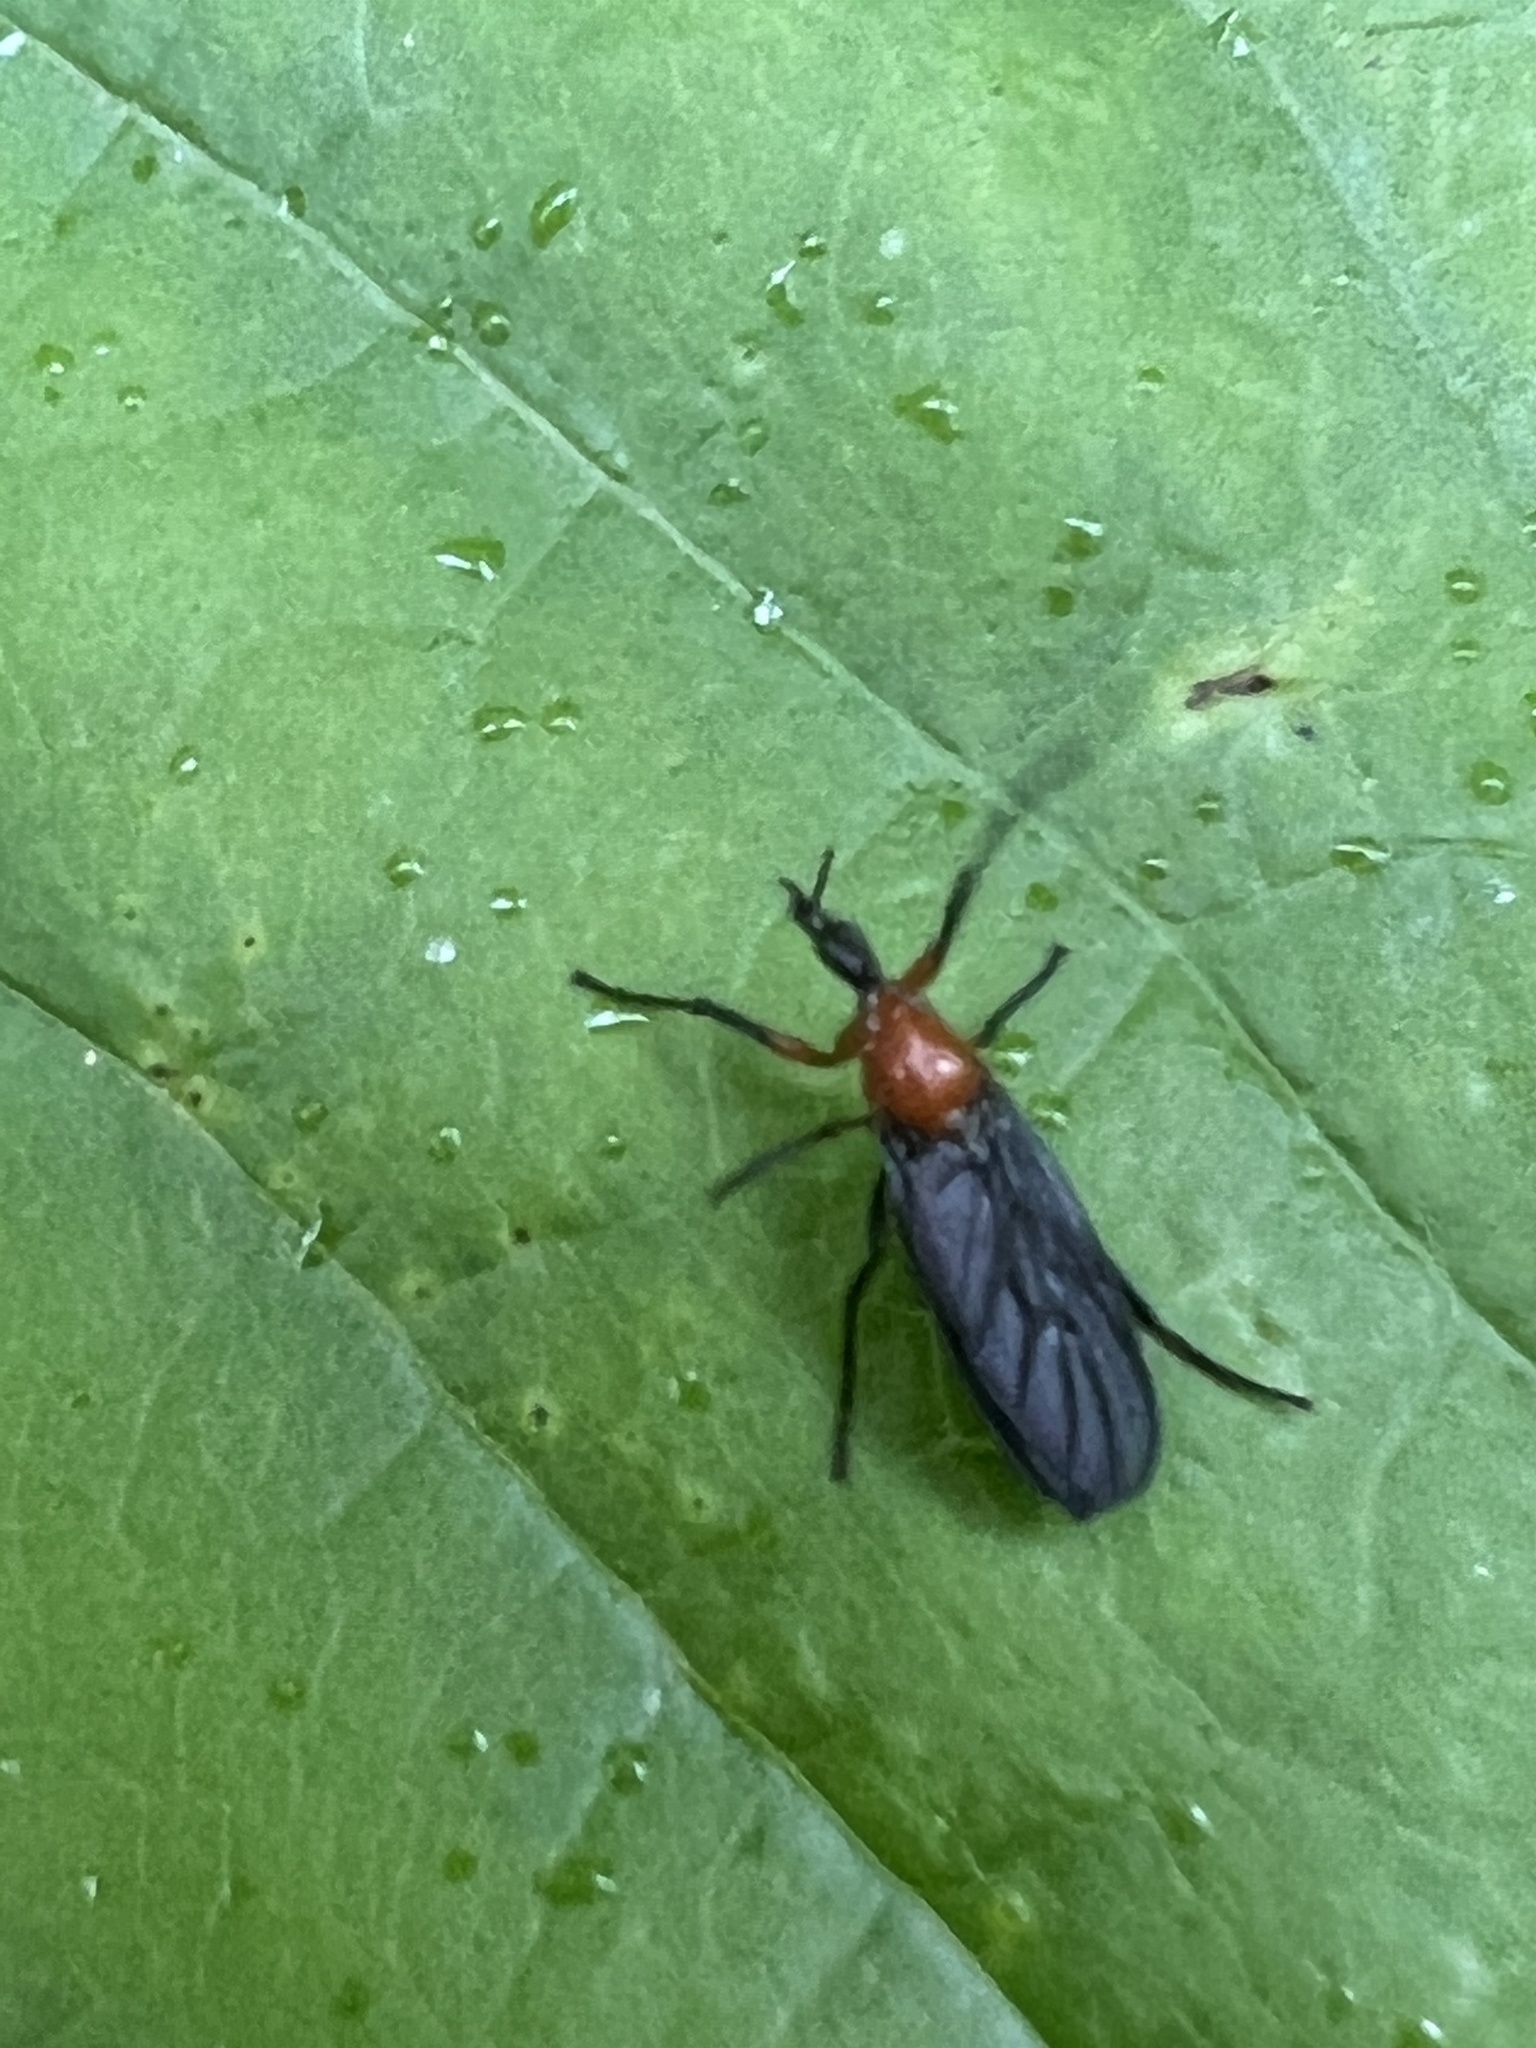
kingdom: Animalia
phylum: Arthropoda
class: Insecta
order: Diptera
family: Bibionidae
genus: Dilophus
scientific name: Dilophus spinipes
